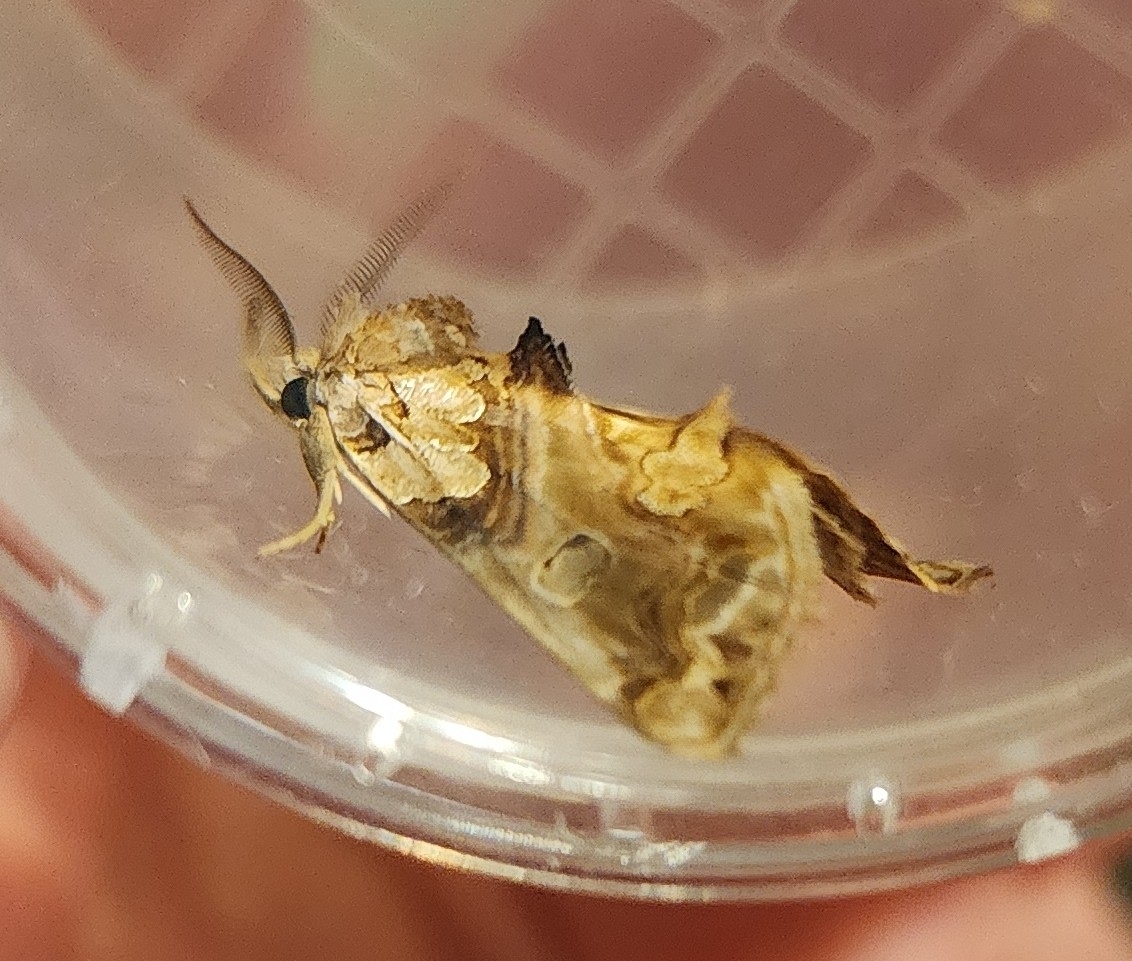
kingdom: Animalia
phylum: Arthropoda
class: Insecta
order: Lepidoptera
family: Erebidae
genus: Plusiodonta
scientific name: Plusiodonta compressipalpis
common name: Moonseed moth
